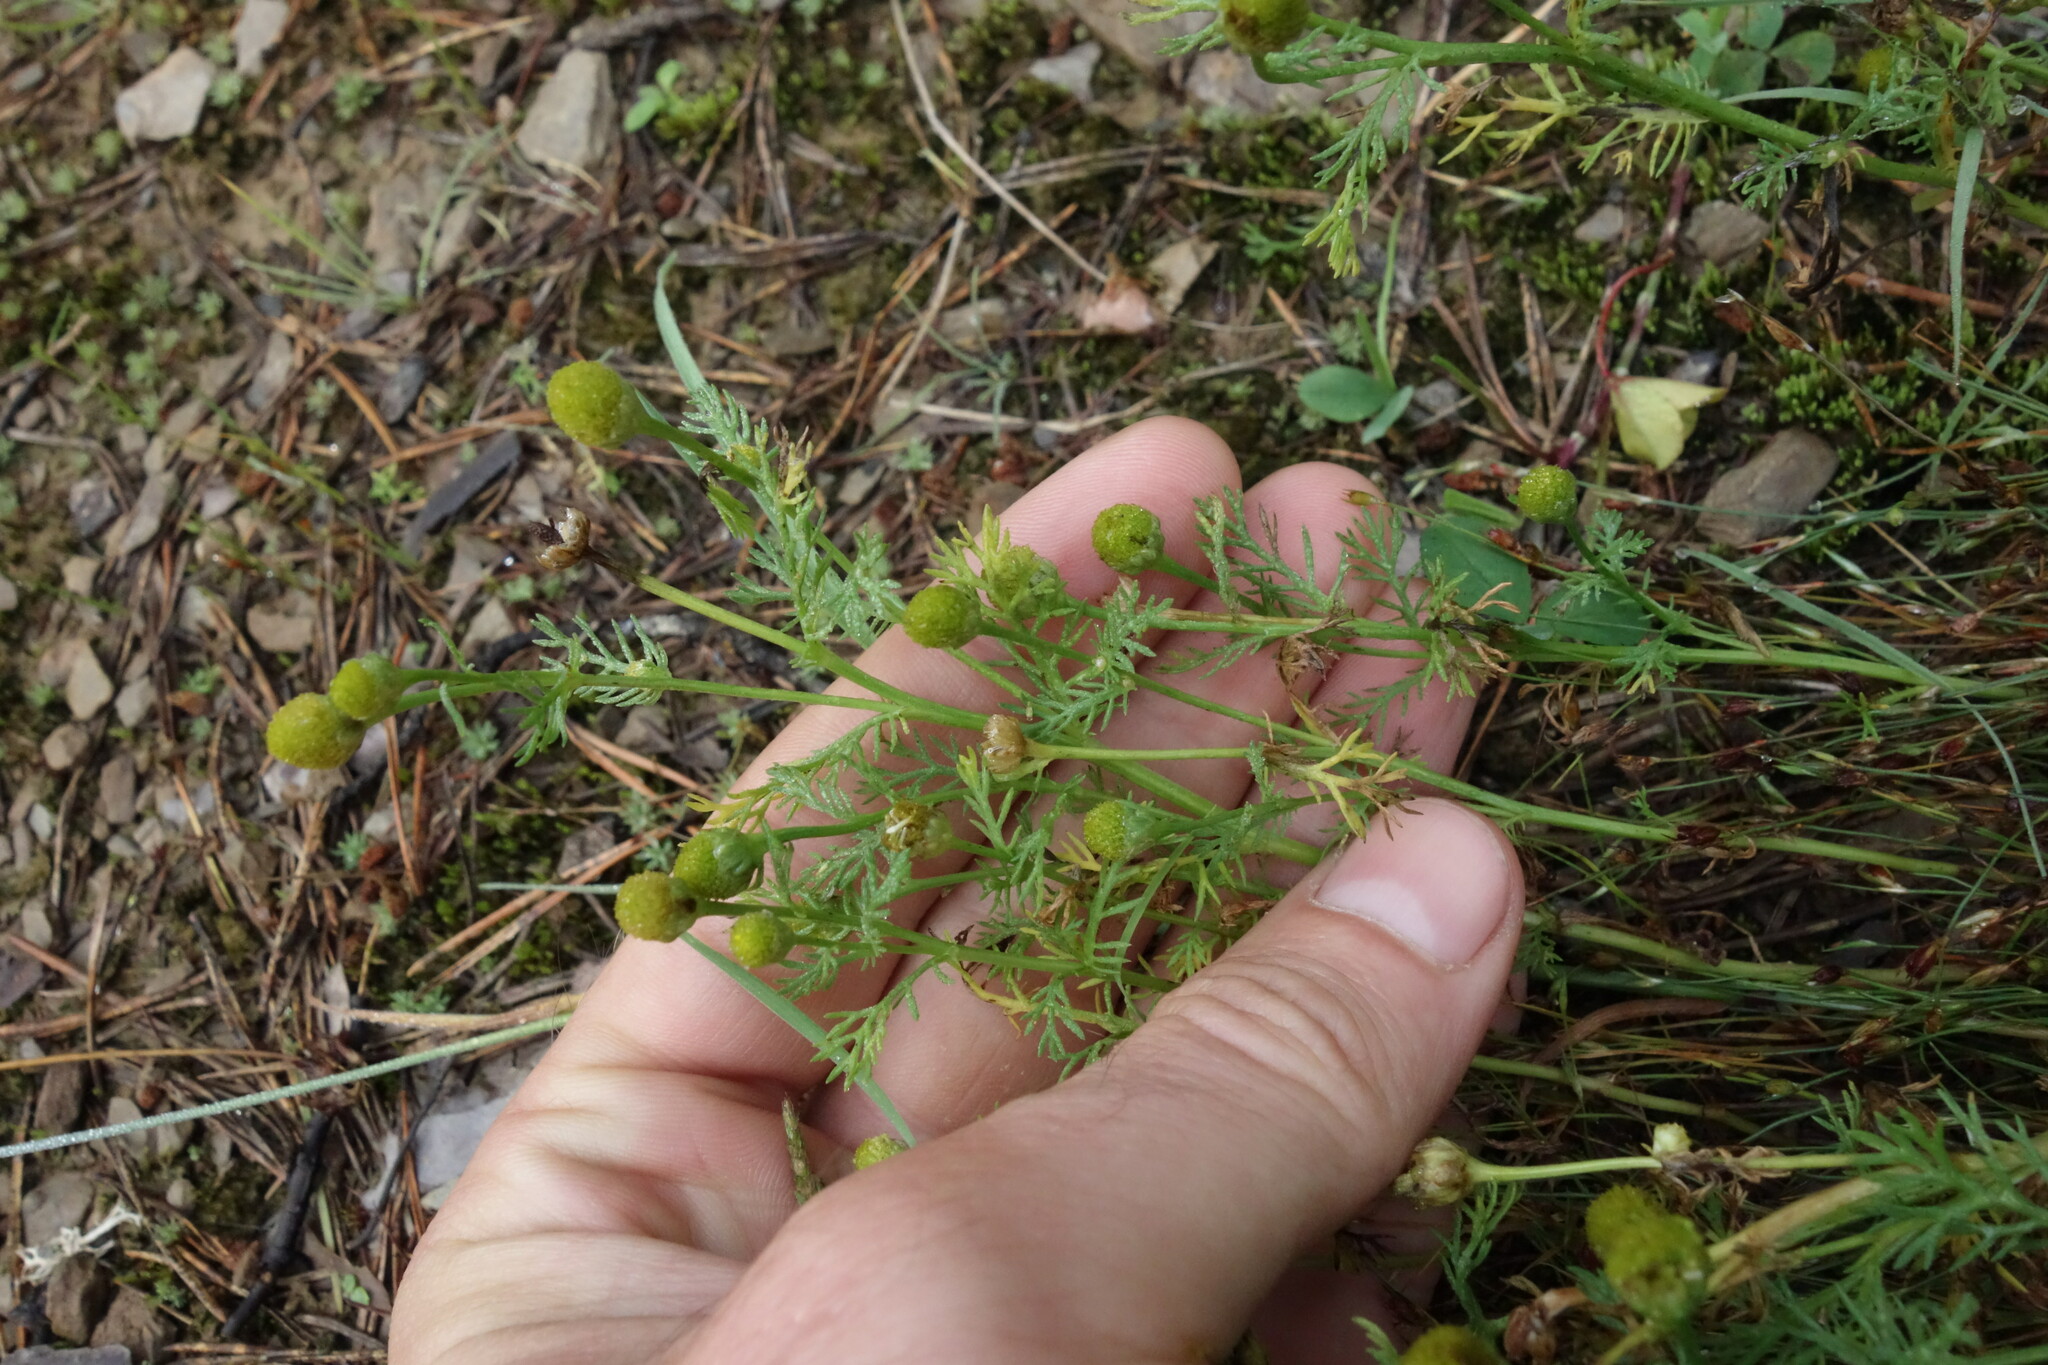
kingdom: Plantae
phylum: Tracheophyta
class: Magnoliopsida
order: Asterales
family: Asteraceae
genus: Matricaria
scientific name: Matricaria discoidea
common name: Disc mayweed
